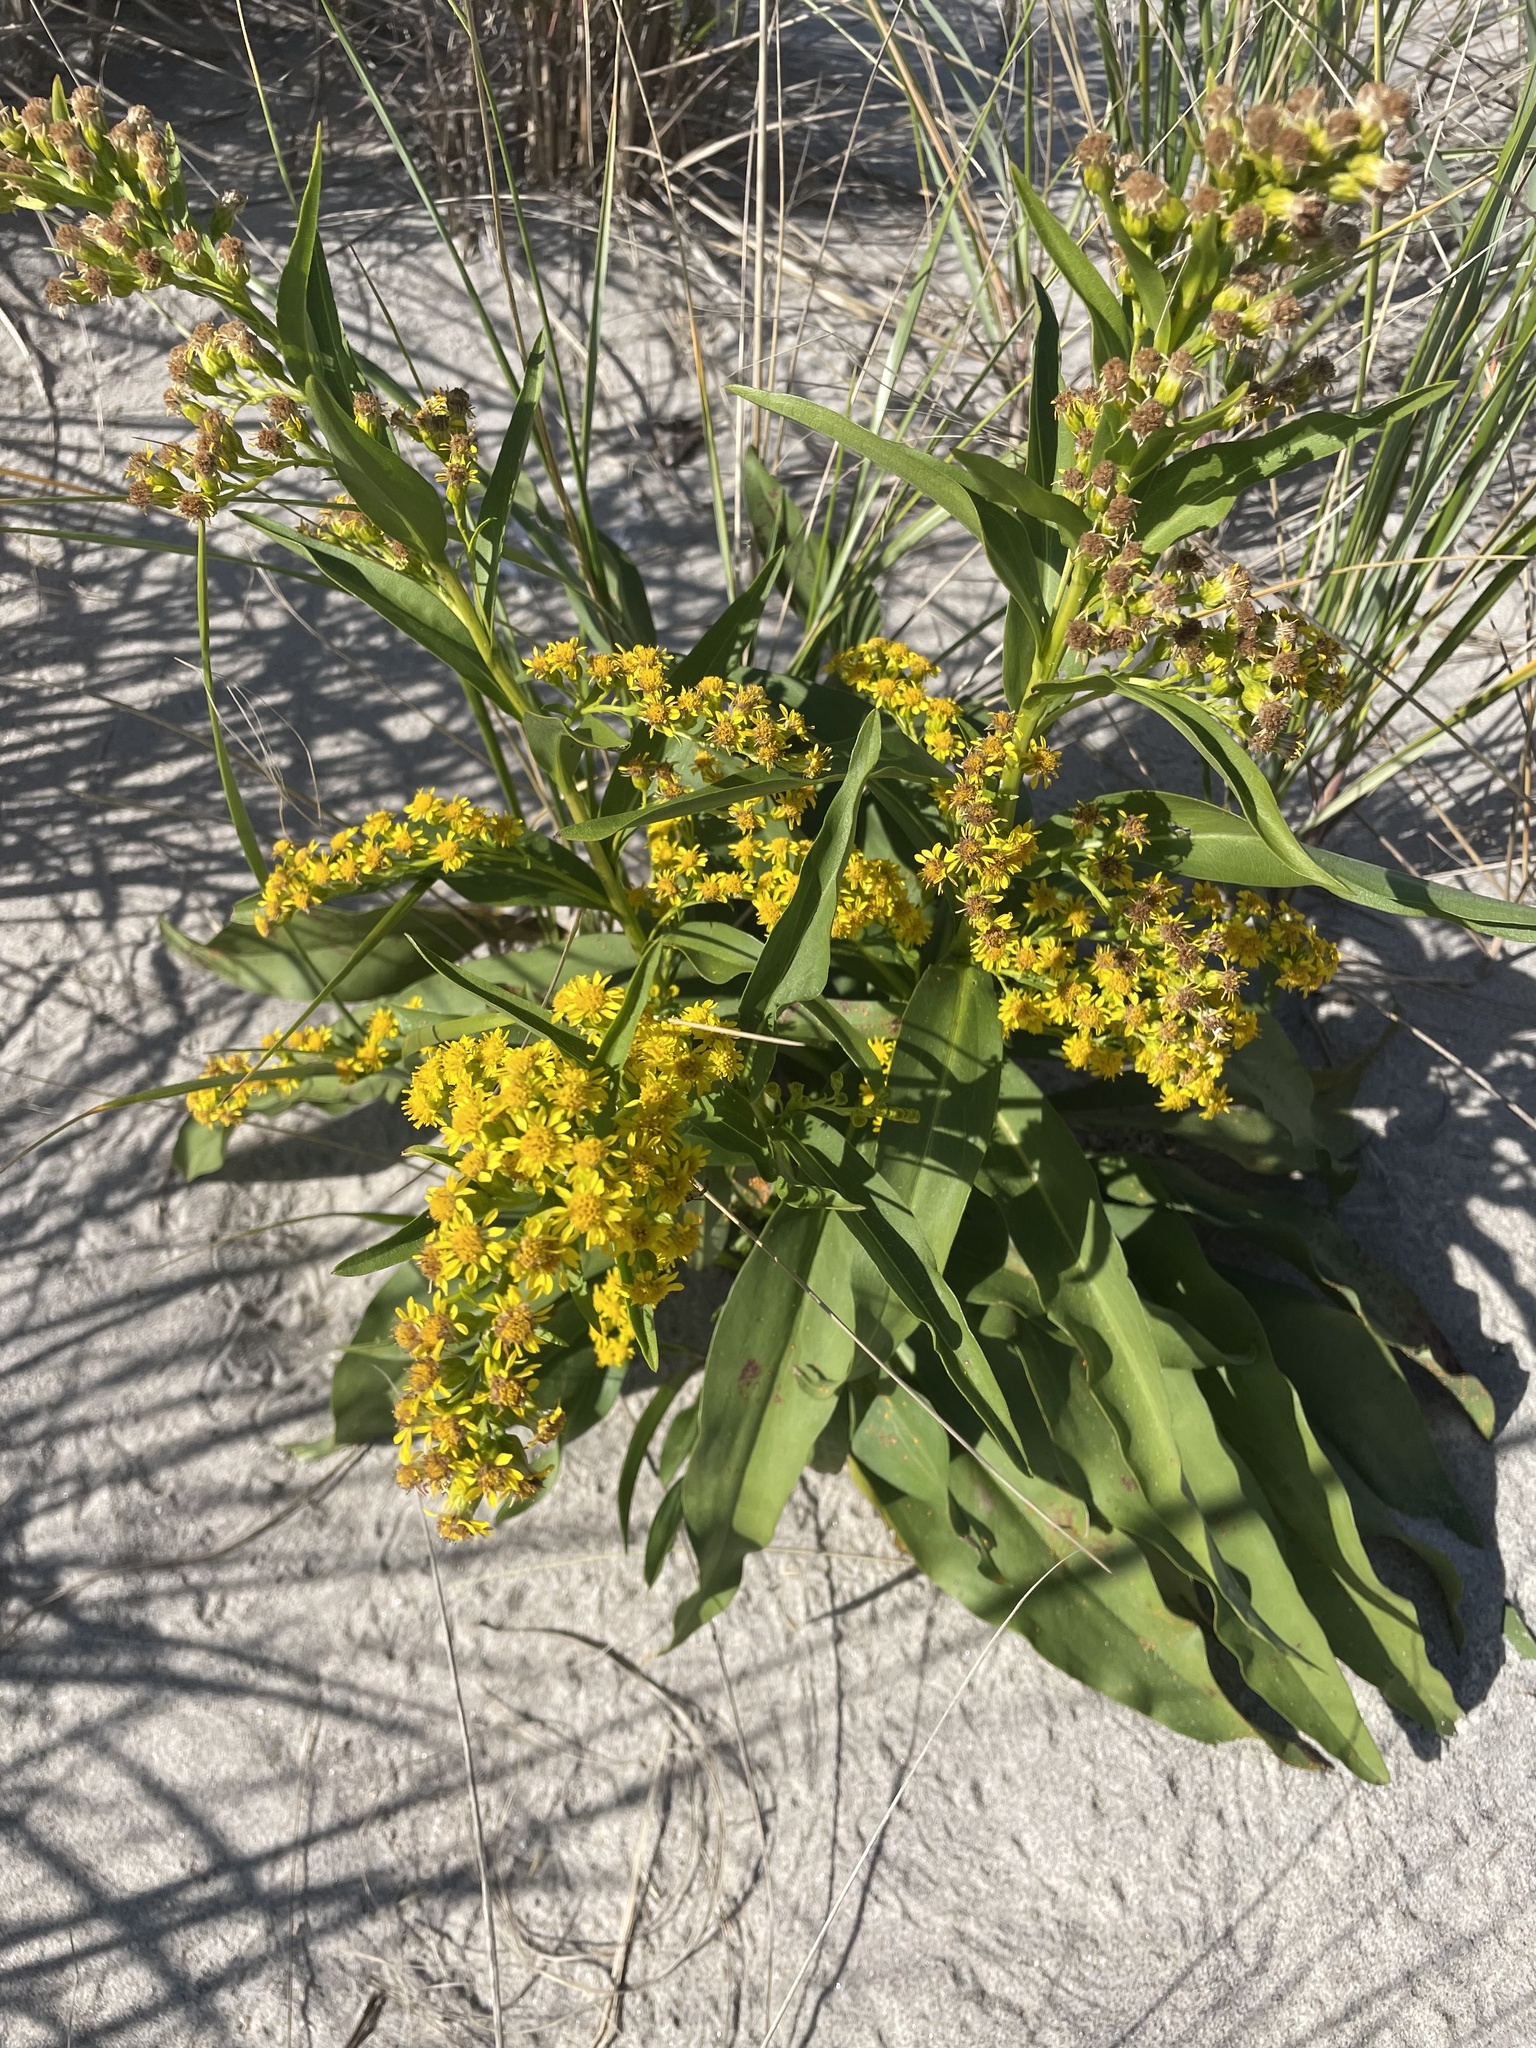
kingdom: Plantae
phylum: Tracheophyta
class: Magnoliopsida
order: Asterales
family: Asteraceae
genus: Solidago
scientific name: Solidago sempervirens
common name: Salt-marsh goldenrod
